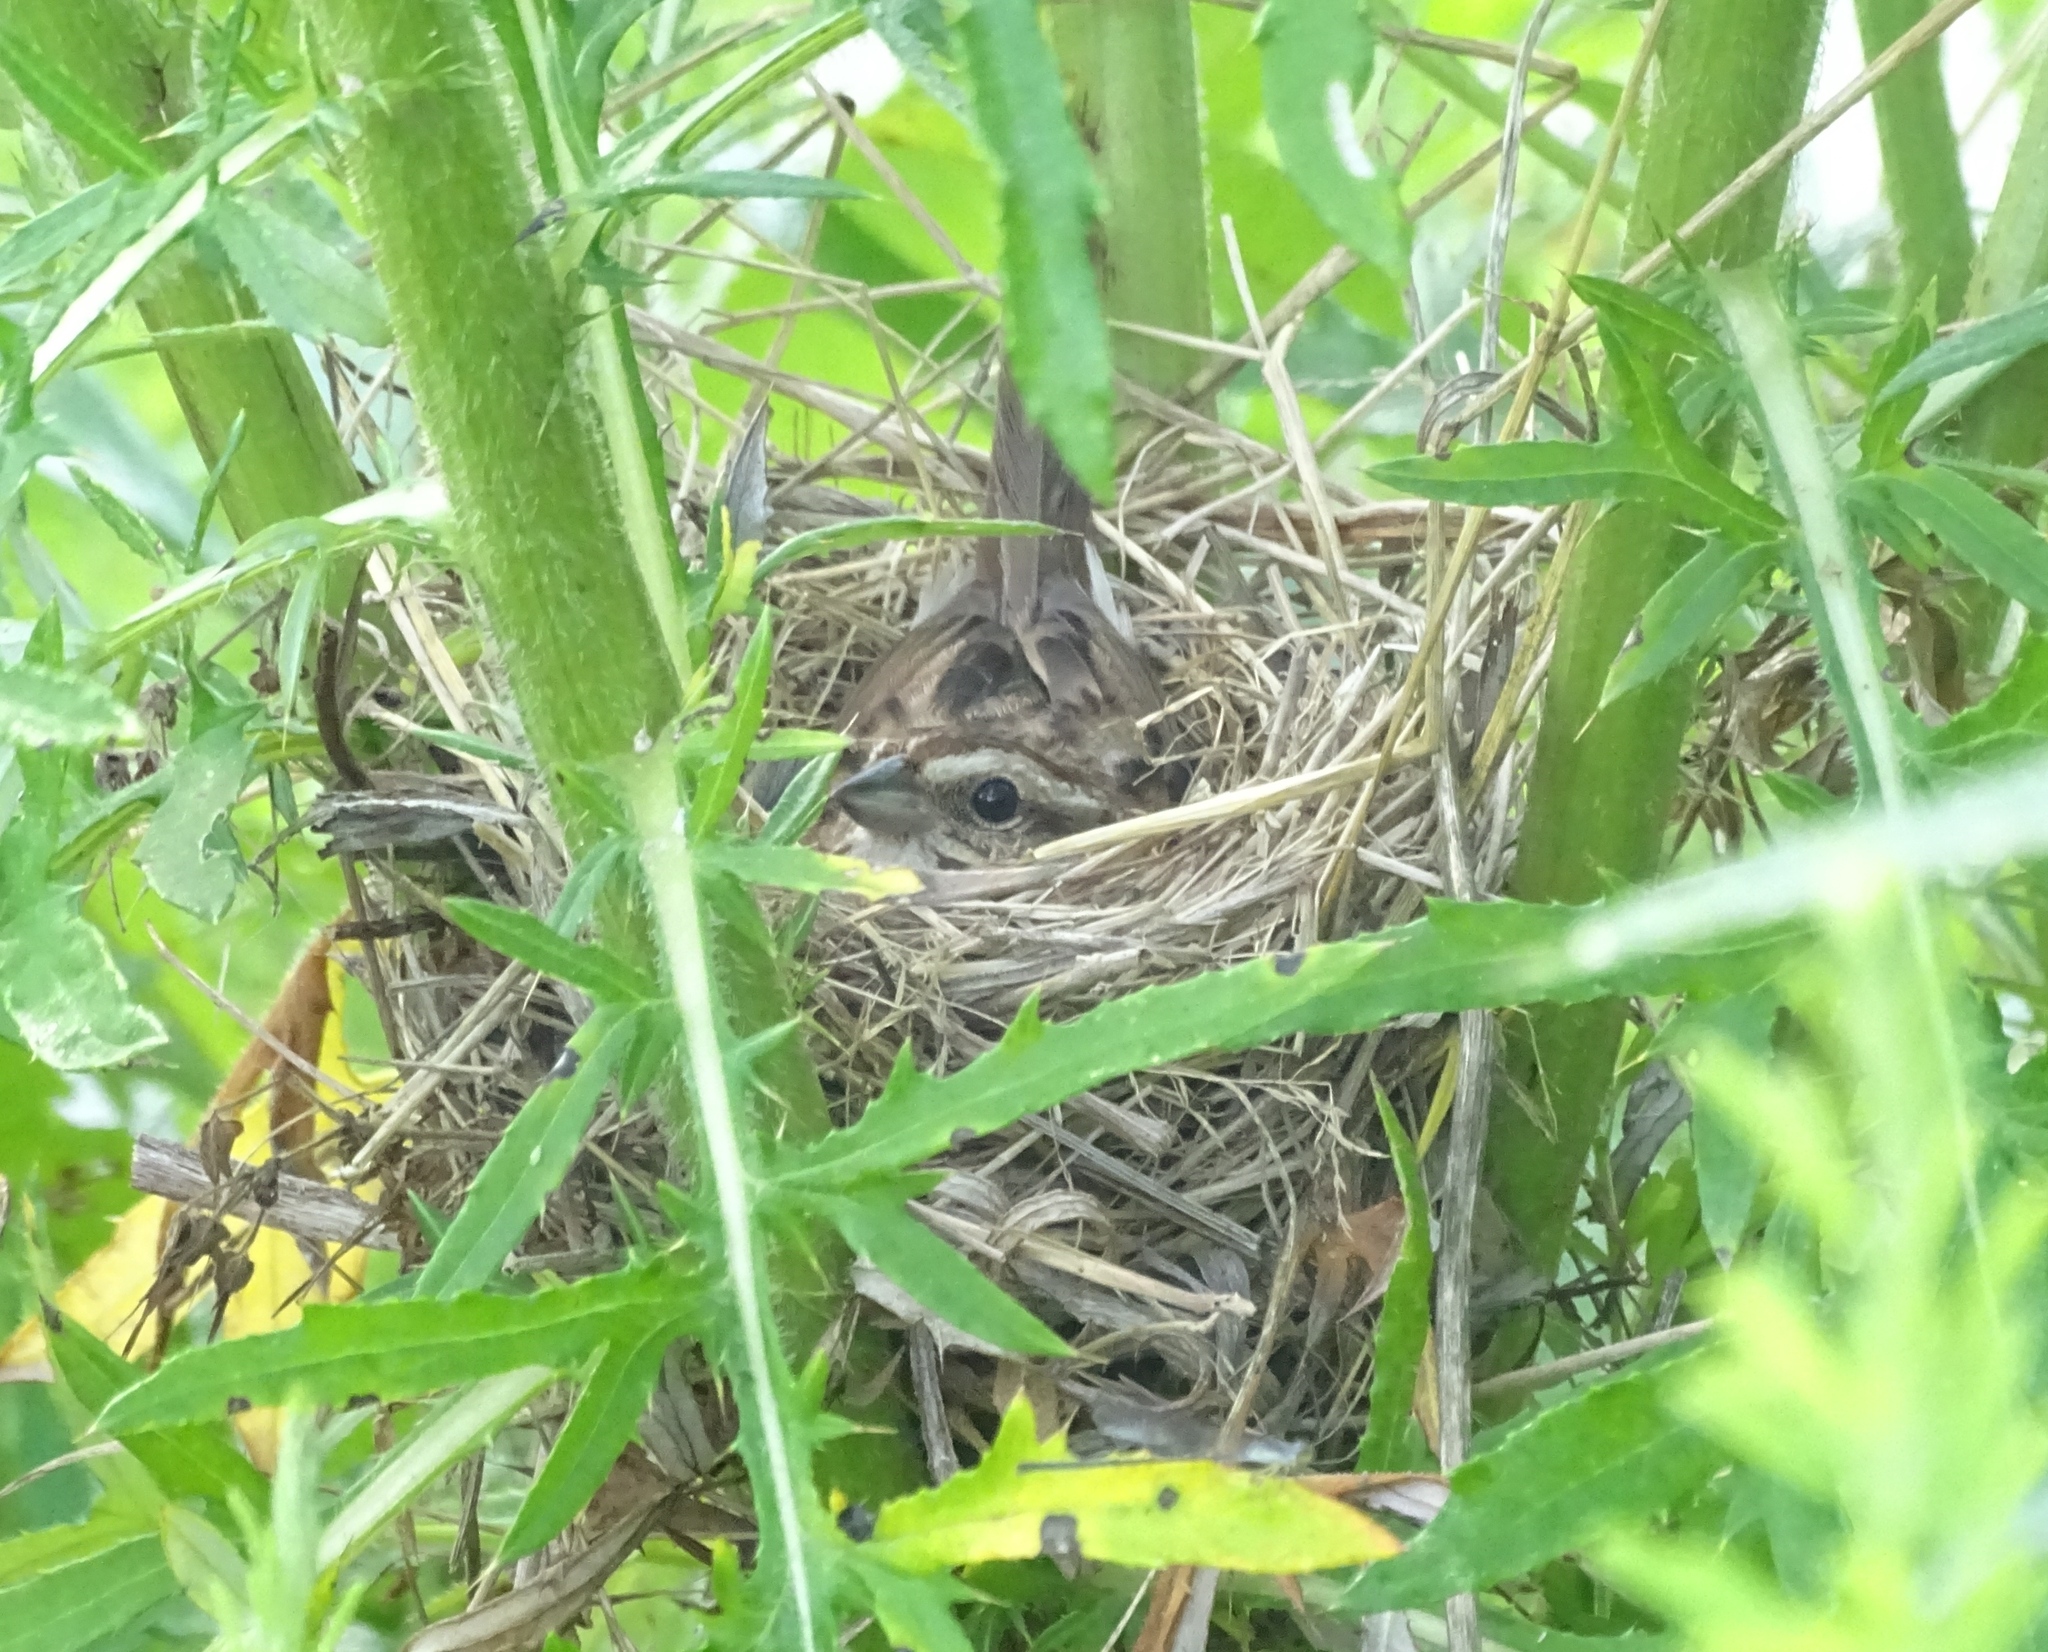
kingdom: Animalia
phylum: Chordata
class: Aves
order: Passeriformes
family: Passerellidae
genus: Melospiza
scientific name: Melospiza melodia
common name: Song sparrow
